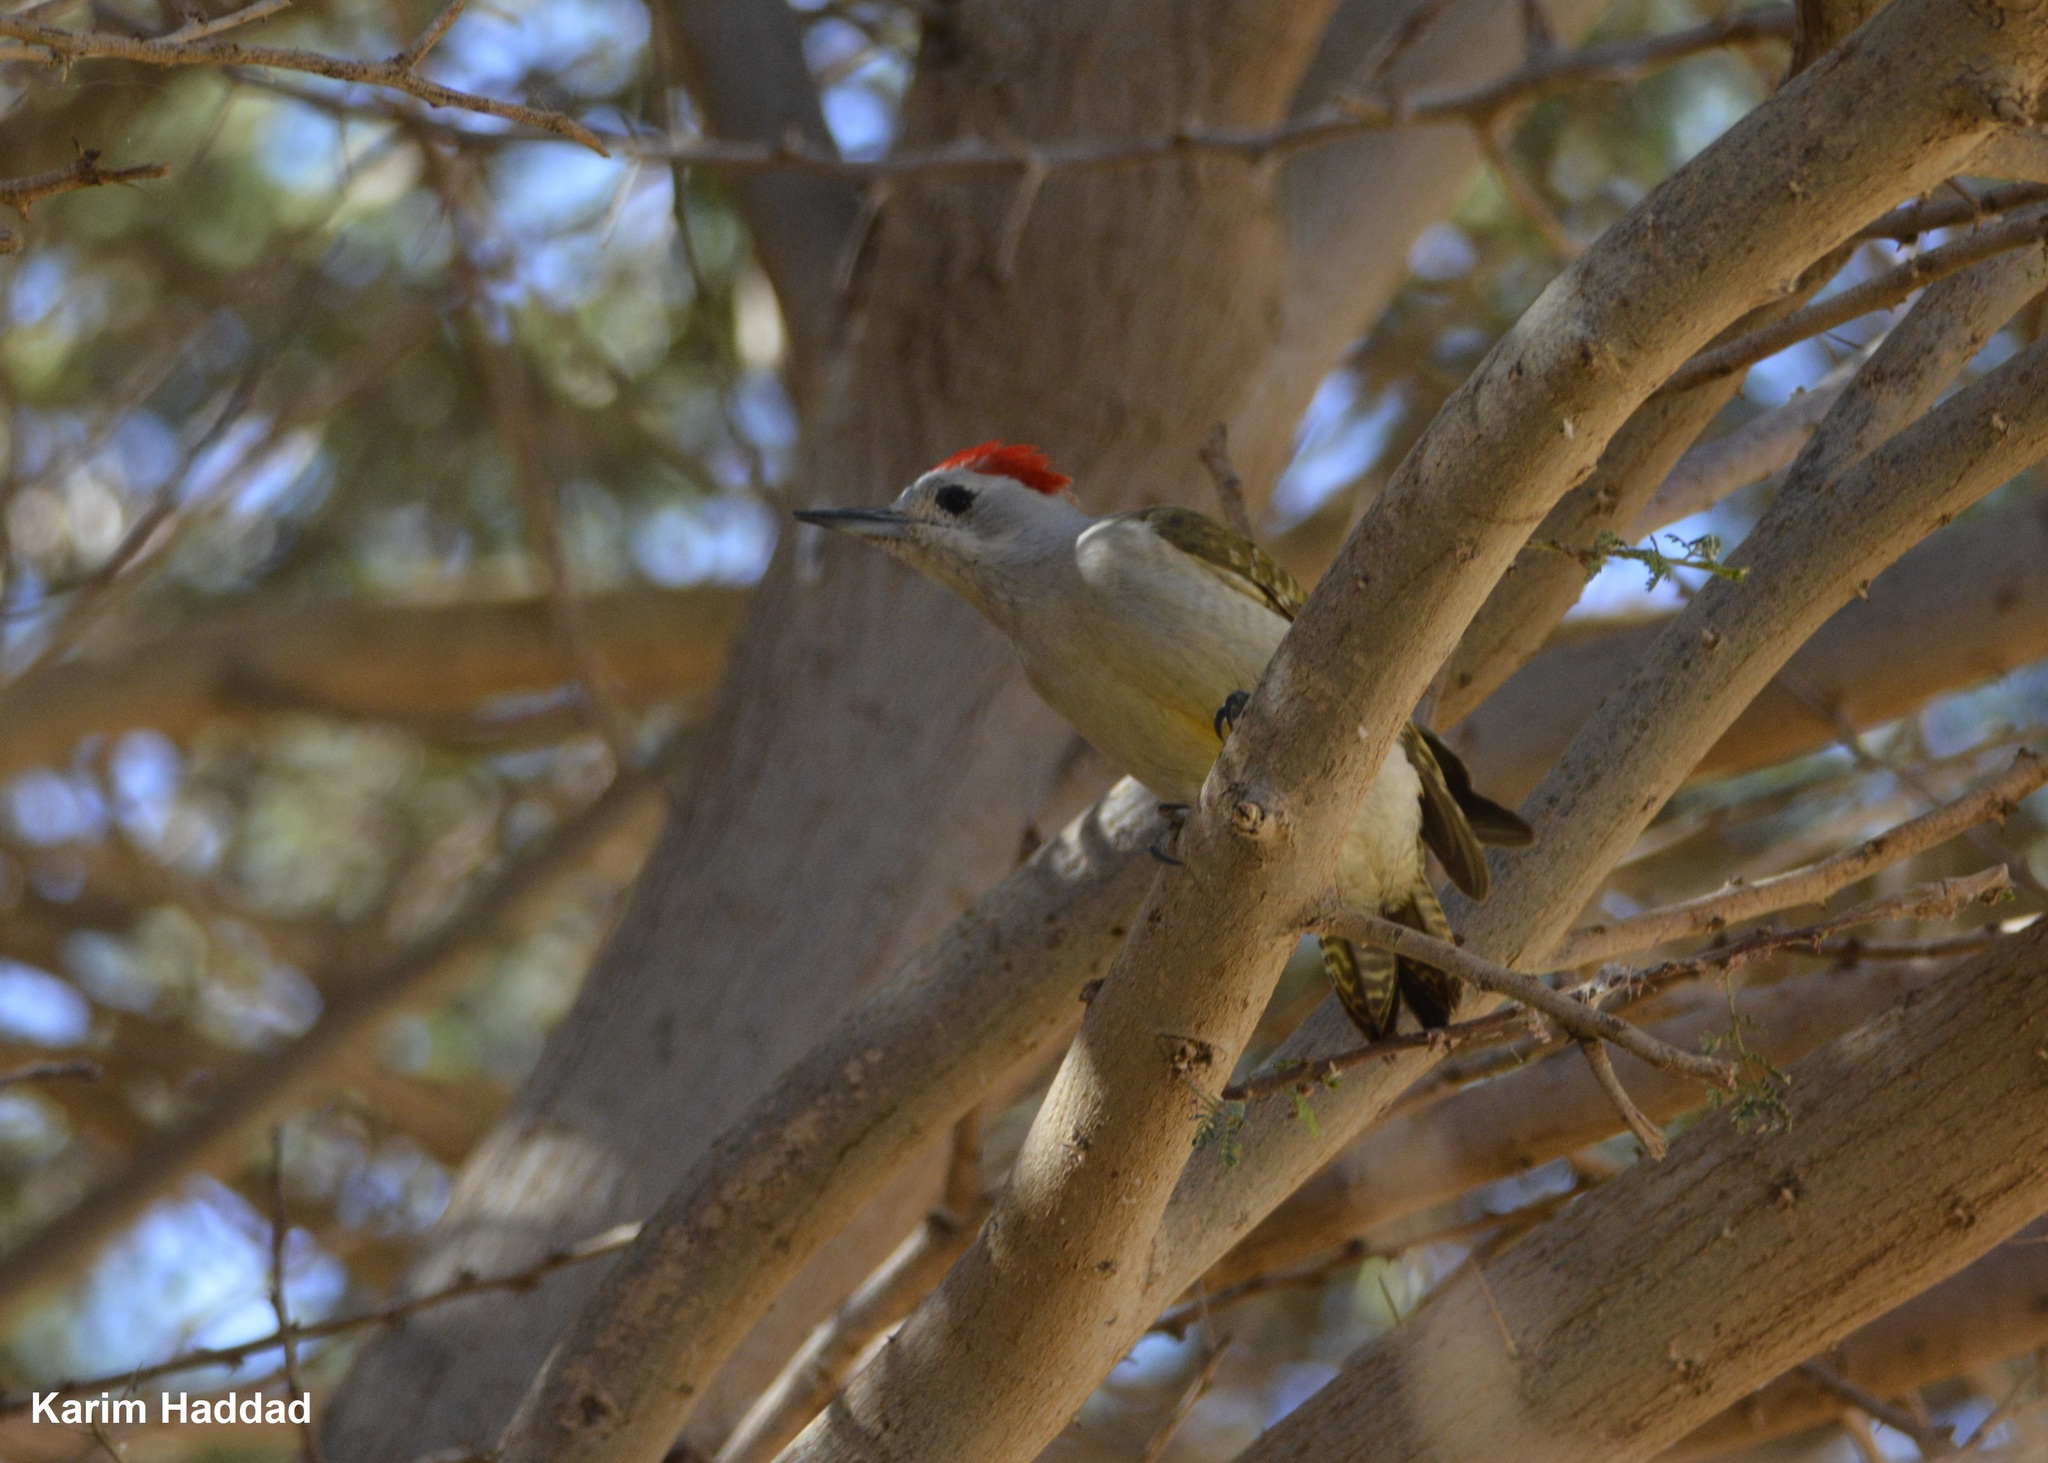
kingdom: Animalia
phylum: Chordata
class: Aves
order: Piciformes
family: Picidae
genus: Dendropicos
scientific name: Dendropicos goertae
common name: African grey woodpecker
